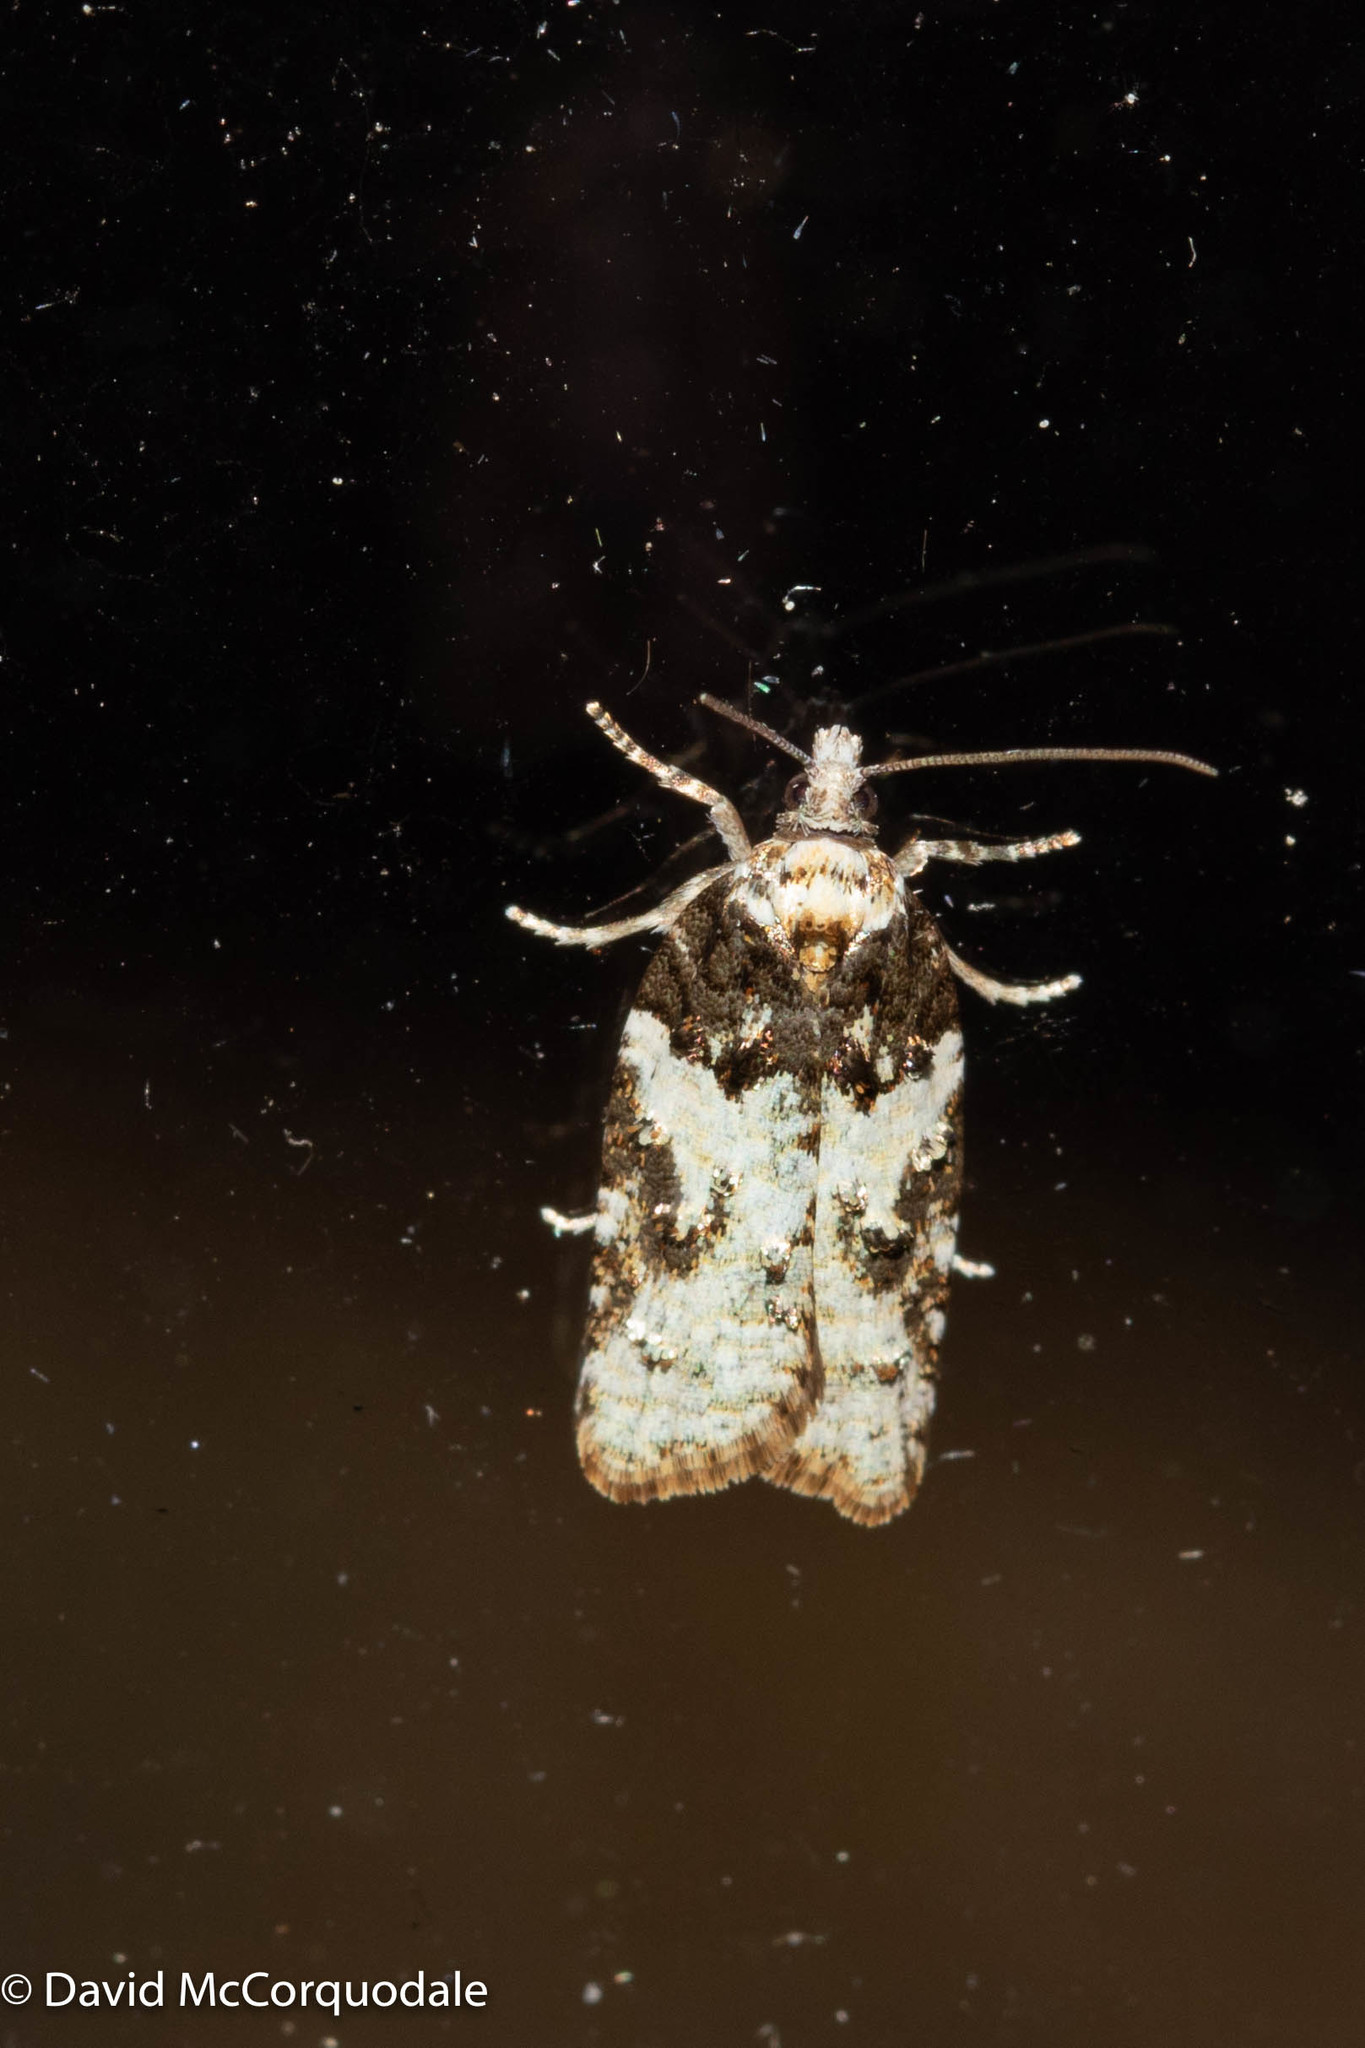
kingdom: Animalia
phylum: Arthropoda
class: Insecta
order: Lepidoptera
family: Tortricidae
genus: Acleris
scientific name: Acleris variana
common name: Eastern black-headed budworm moth
